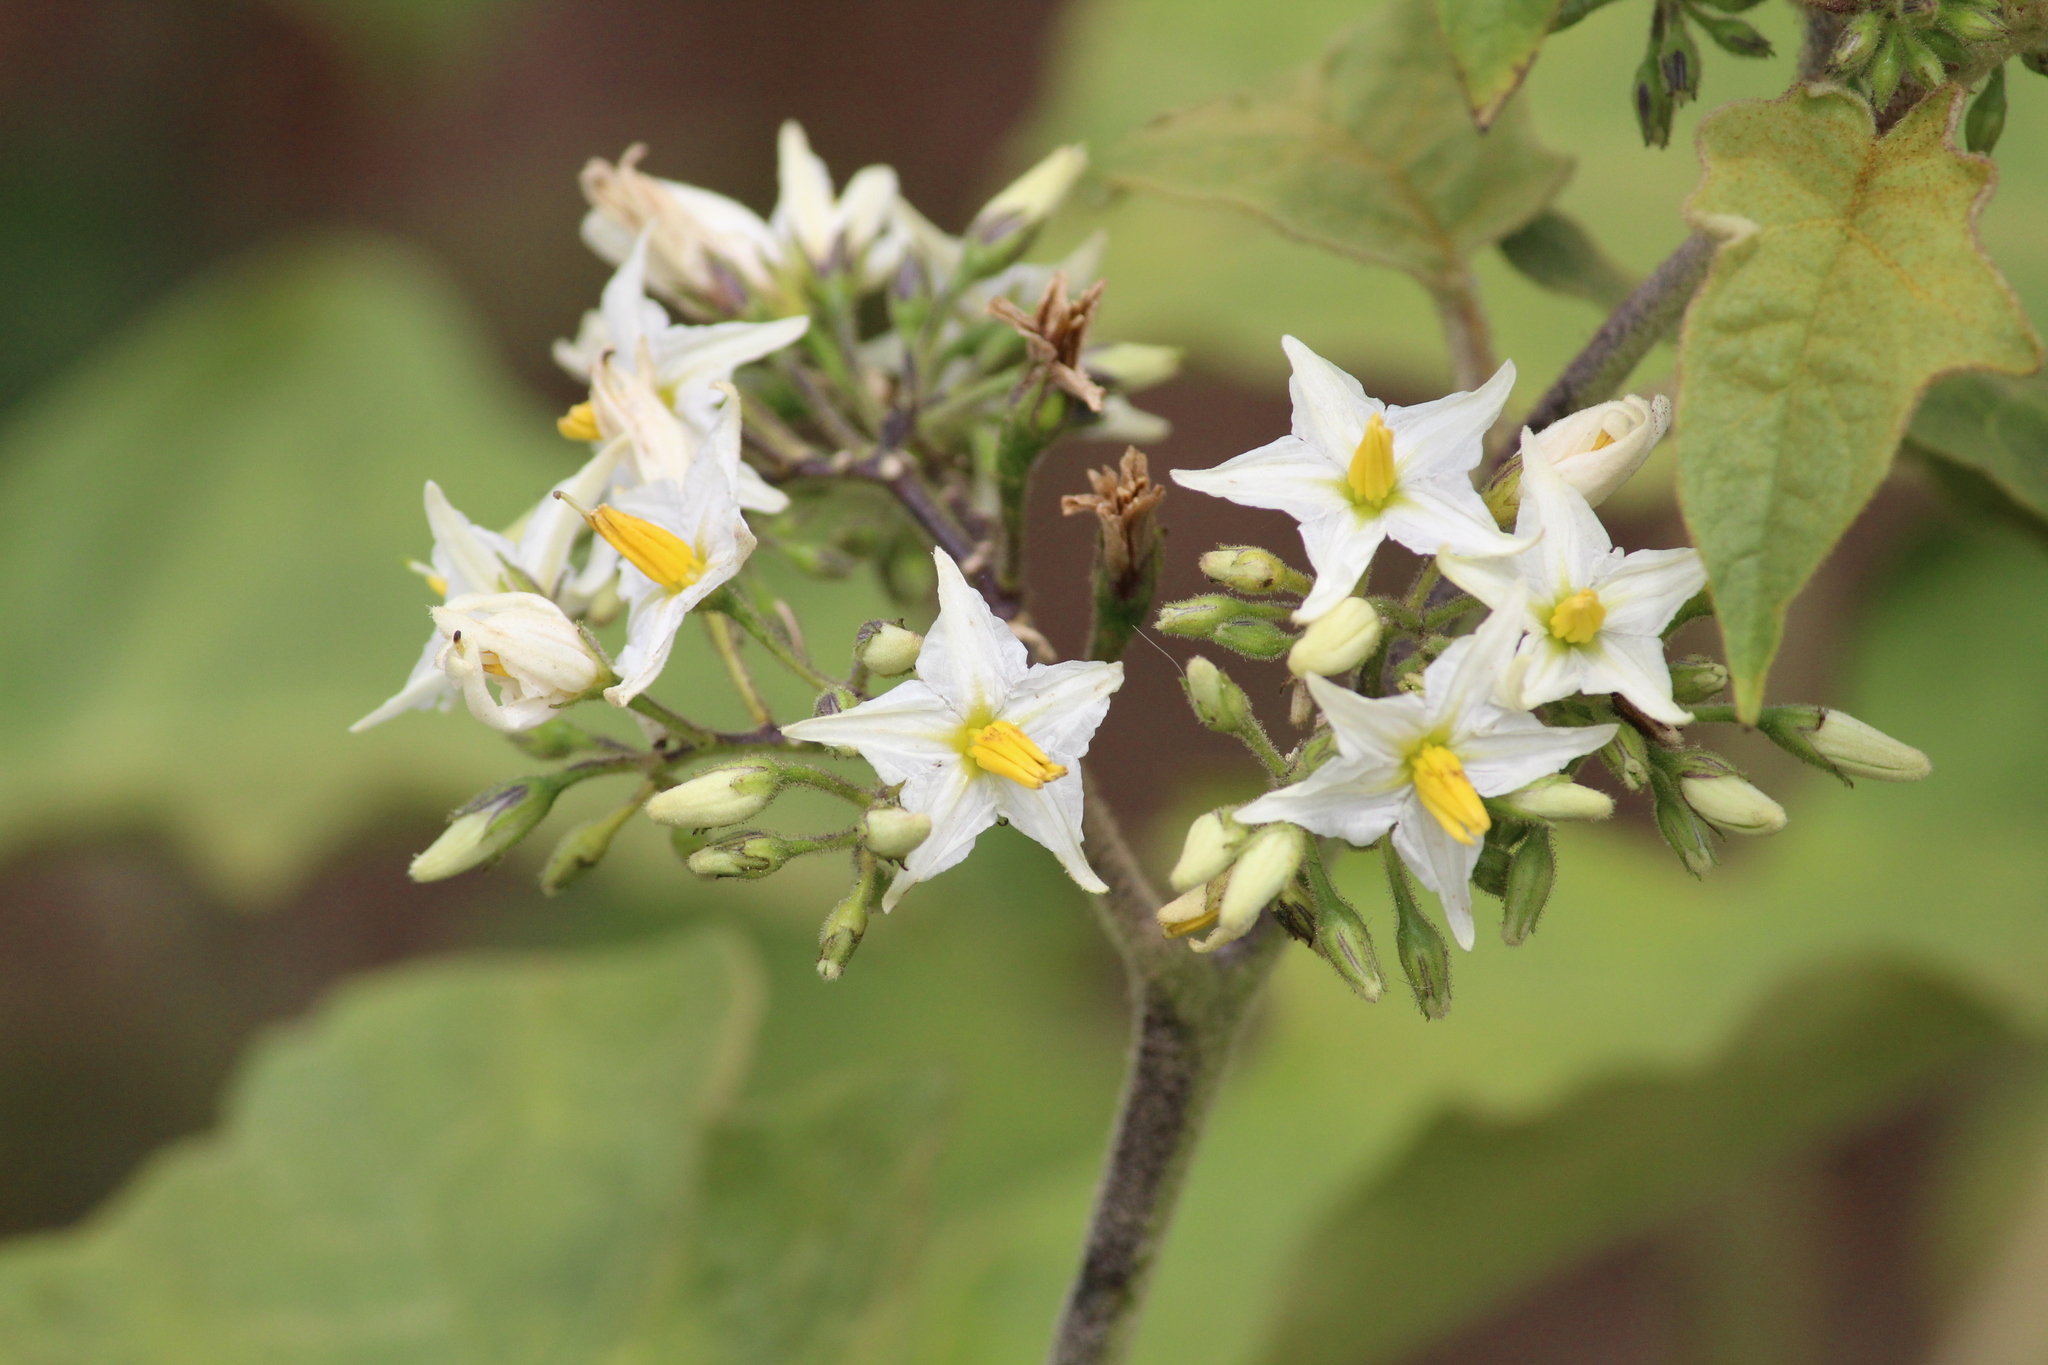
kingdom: Plantae
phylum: Tracheophyta
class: Magnoliopsida
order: Solanales
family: Solanaceae
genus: Solanum
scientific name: Solanum torvum
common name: Turkey berry
